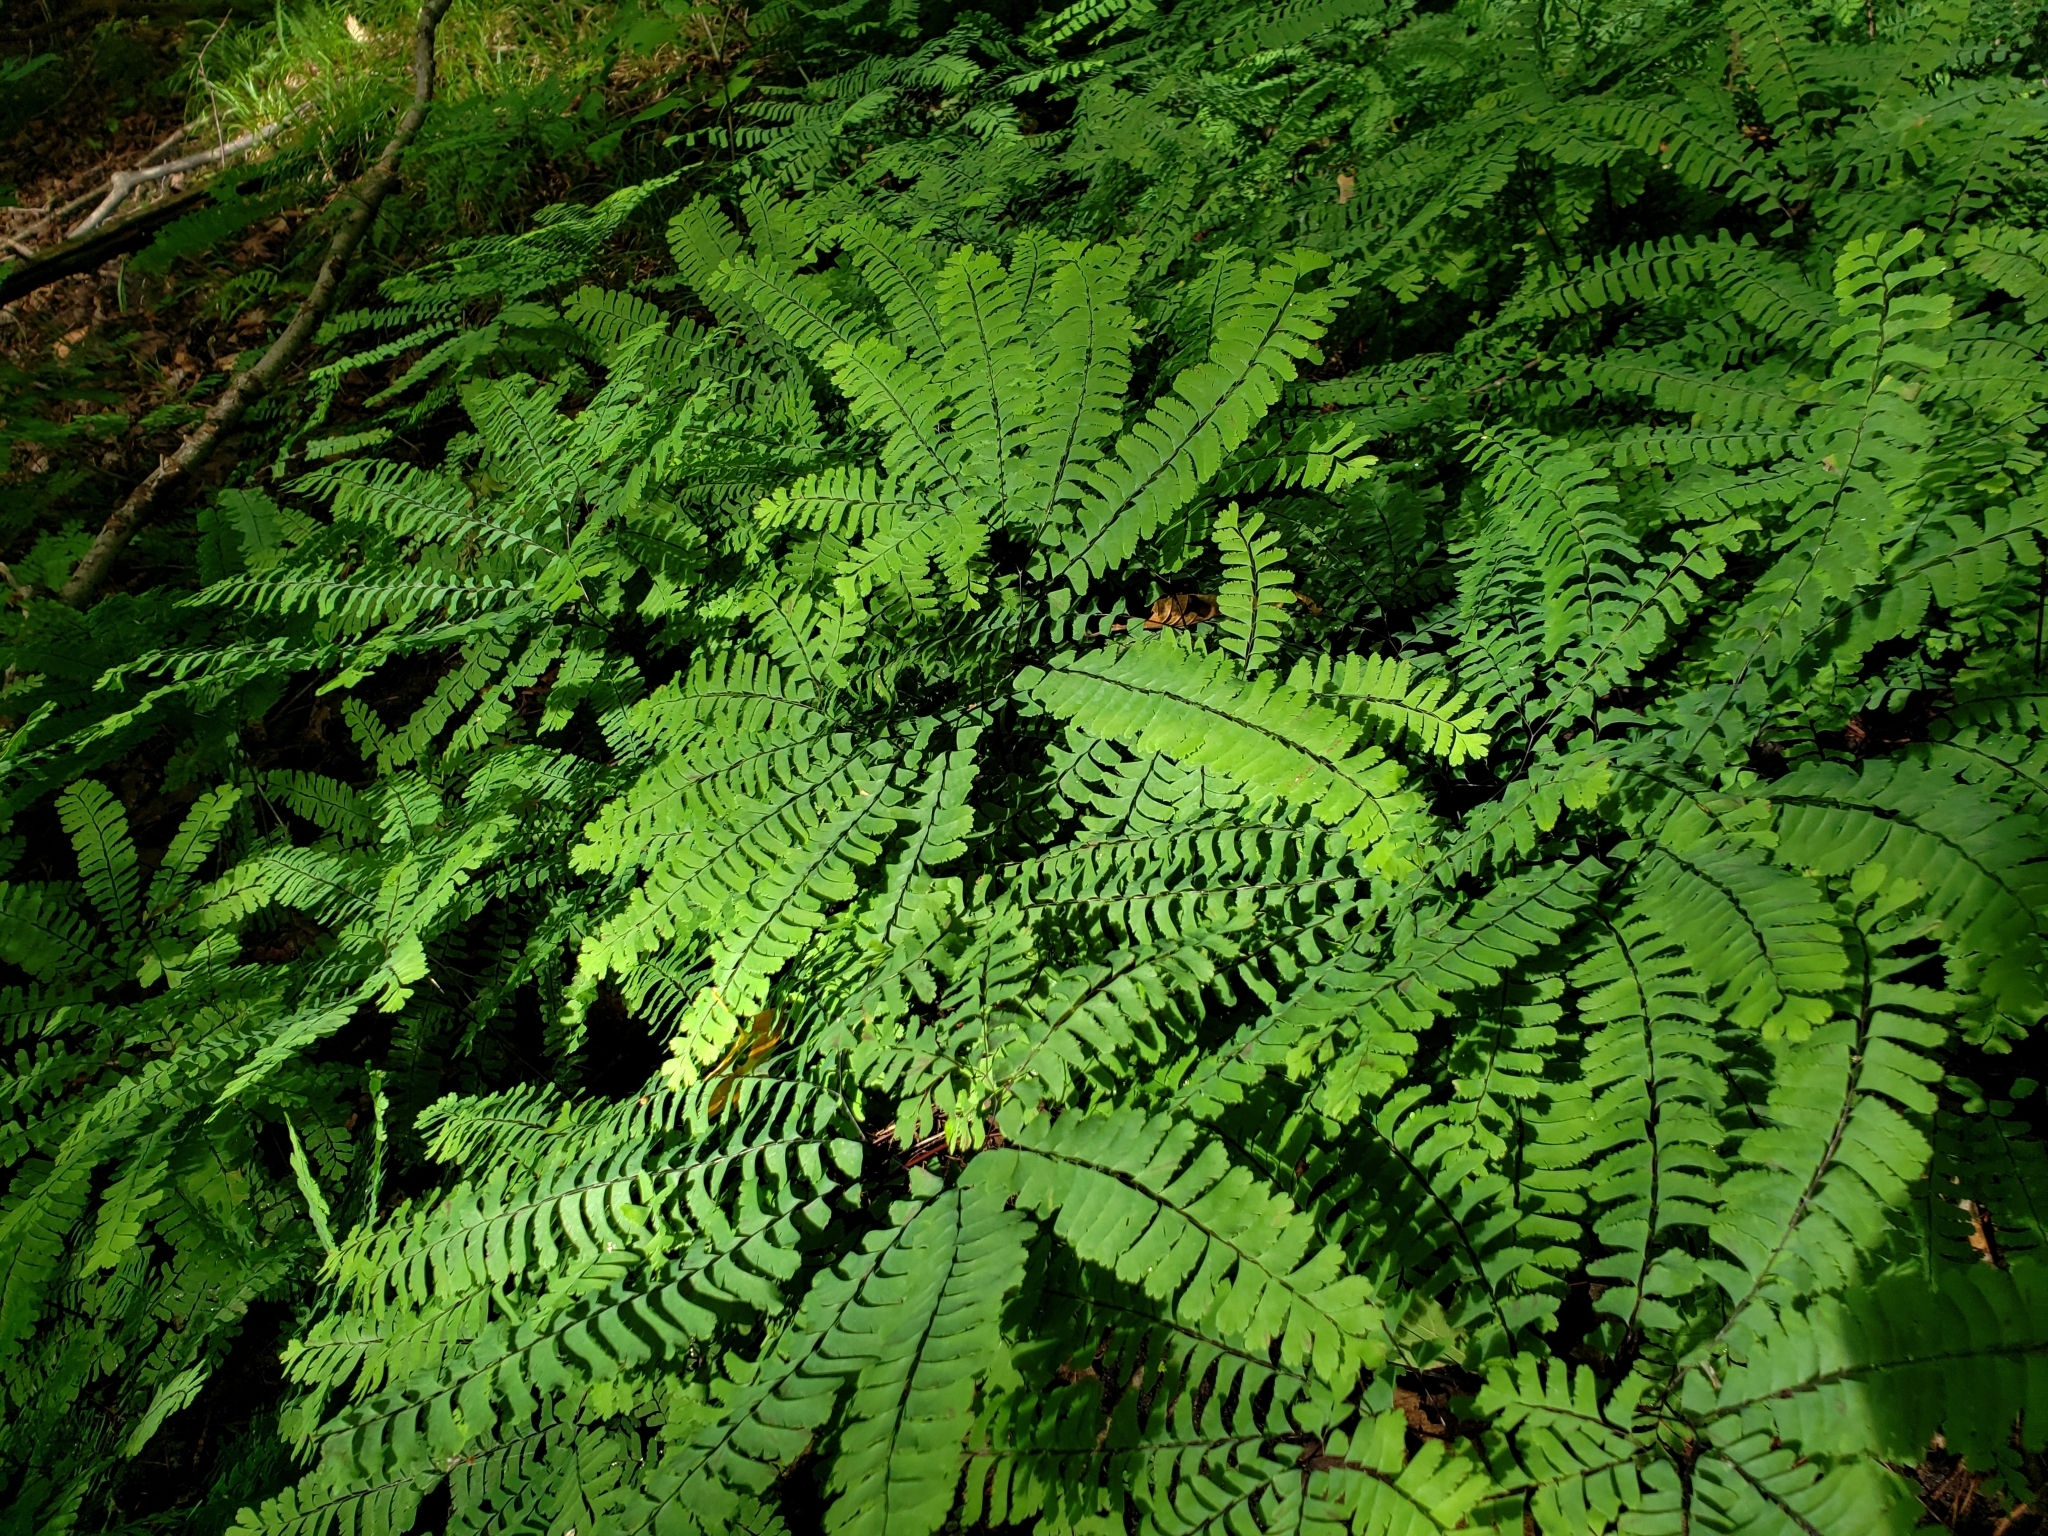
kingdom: Plantae
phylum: Tracheophyta
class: Polypodiopsida
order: Polypodiales
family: Pteridaceae
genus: Adiantum
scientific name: Adiantum pedatum
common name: Five-finger fern
